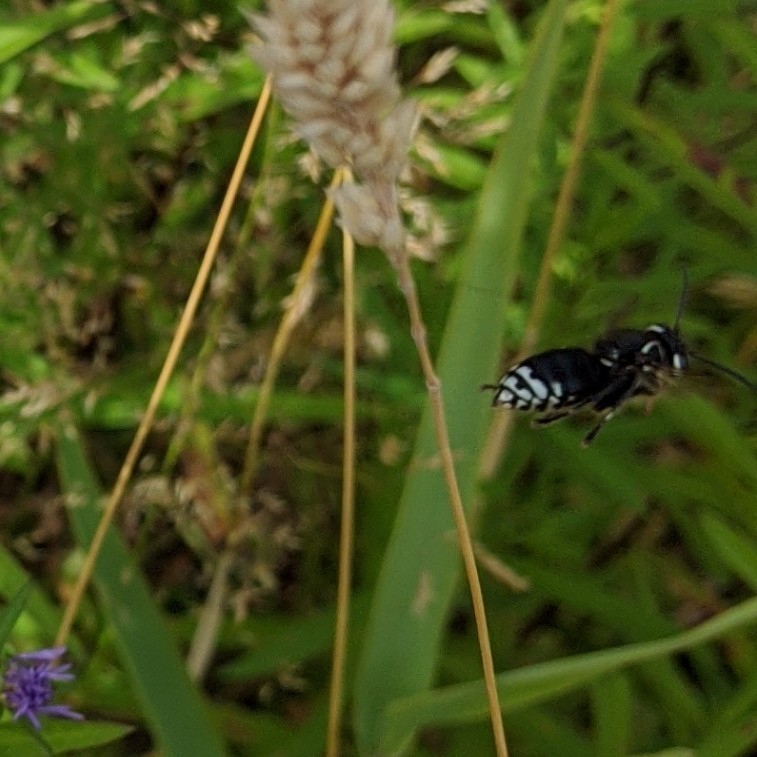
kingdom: Animalia
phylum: Arthropoda
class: Insecta
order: Hymenoptera
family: Vespidae
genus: Dolichovespula
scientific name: Dolichovespula maculata
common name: Bald-faced hornet
